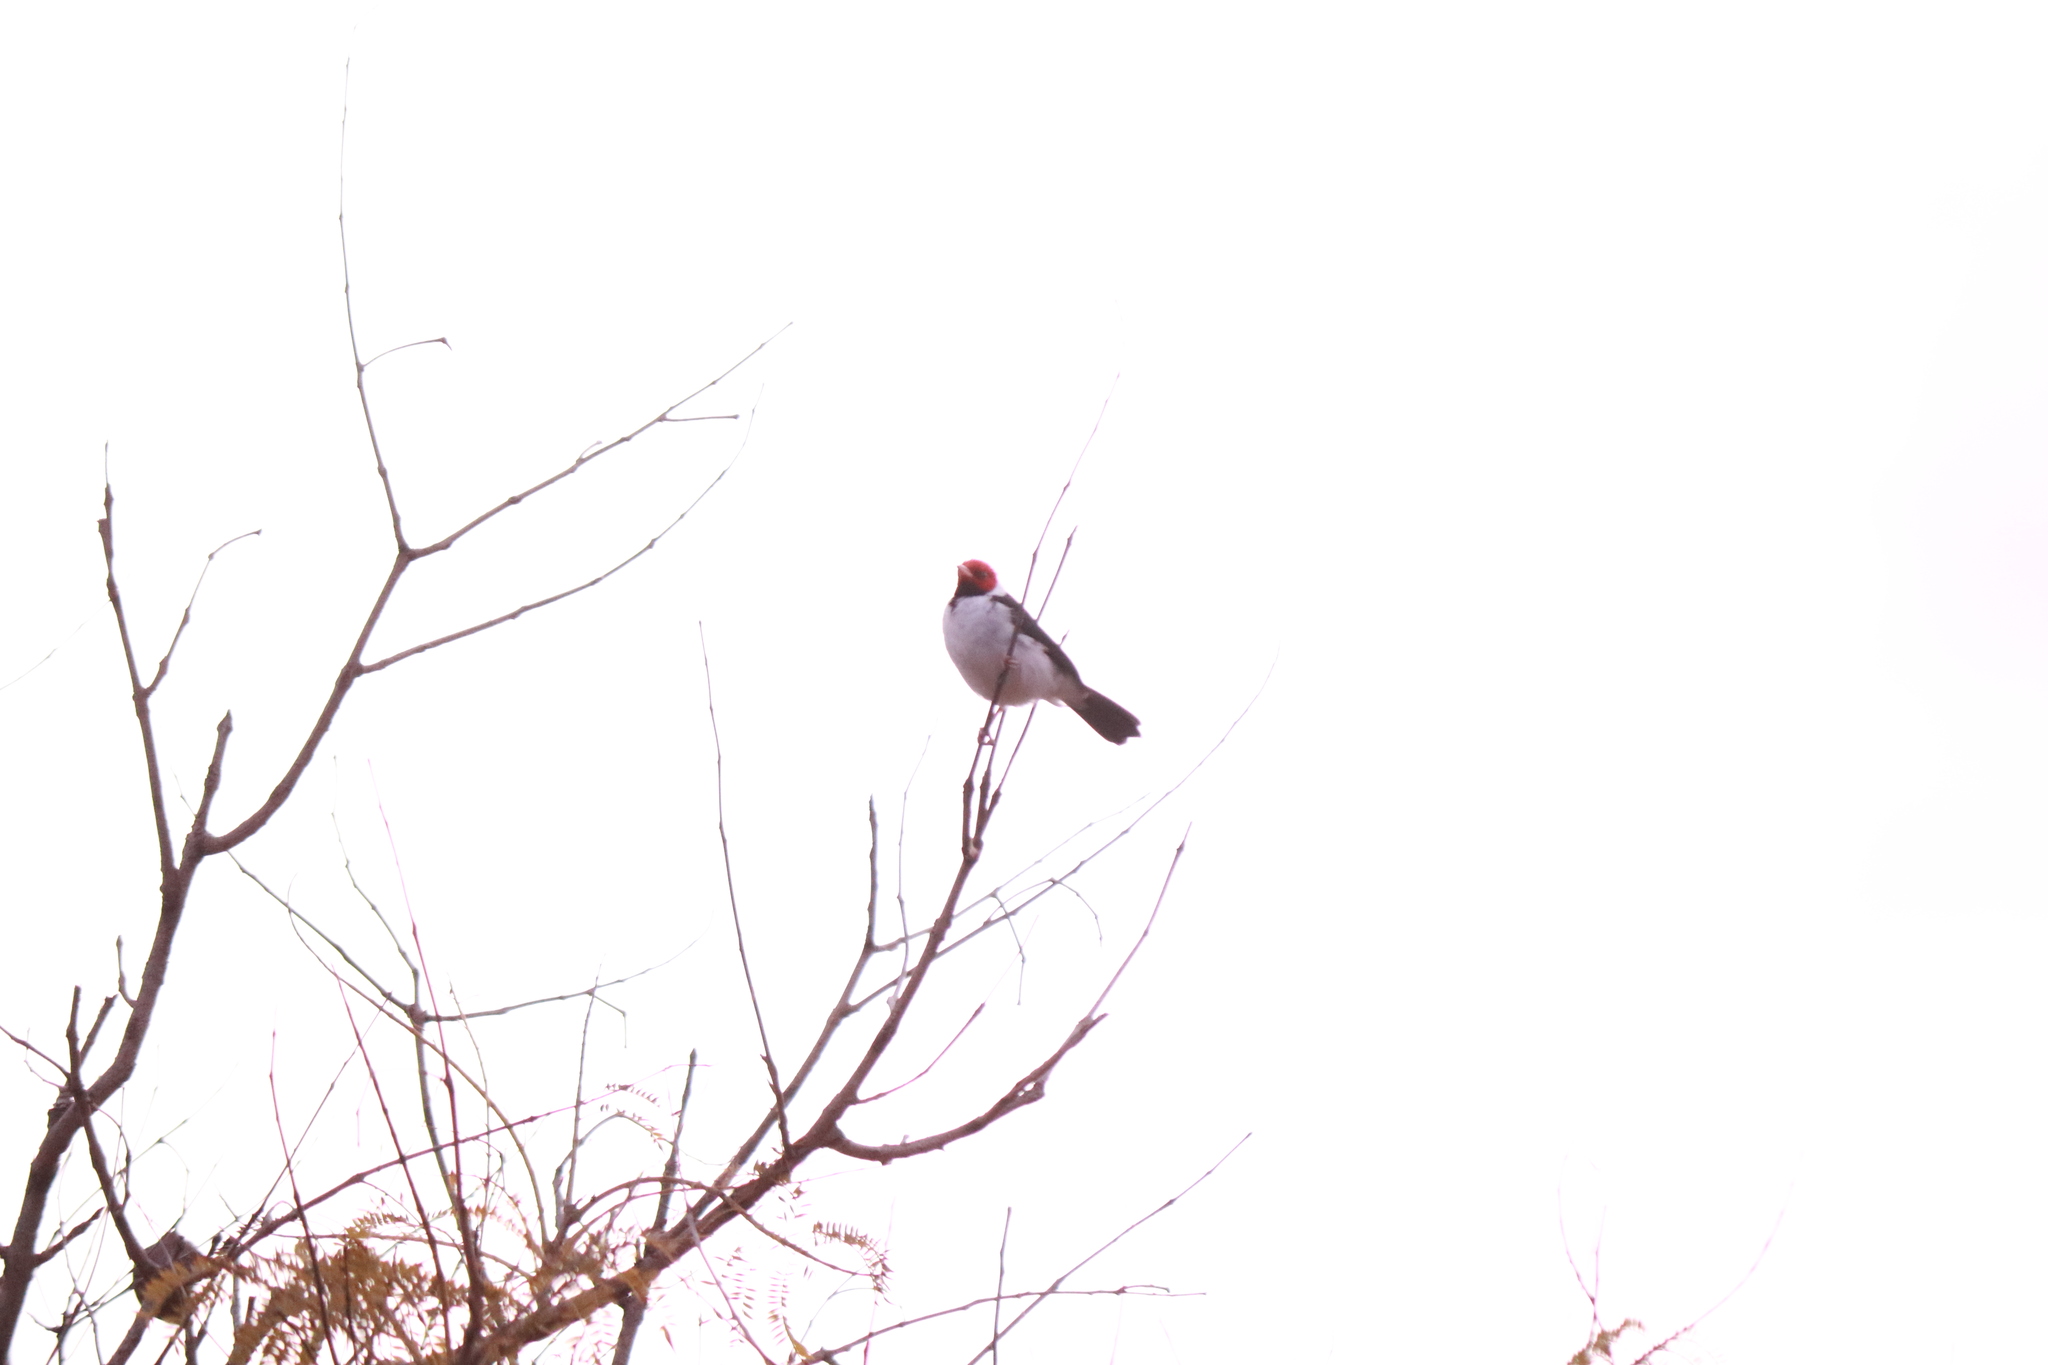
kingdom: Animalia
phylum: Chordata
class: Aves
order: Passeriformes
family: Thraupidae
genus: Paroaria
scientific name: Paroaria capitata
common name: Yellow-billed cardinal
